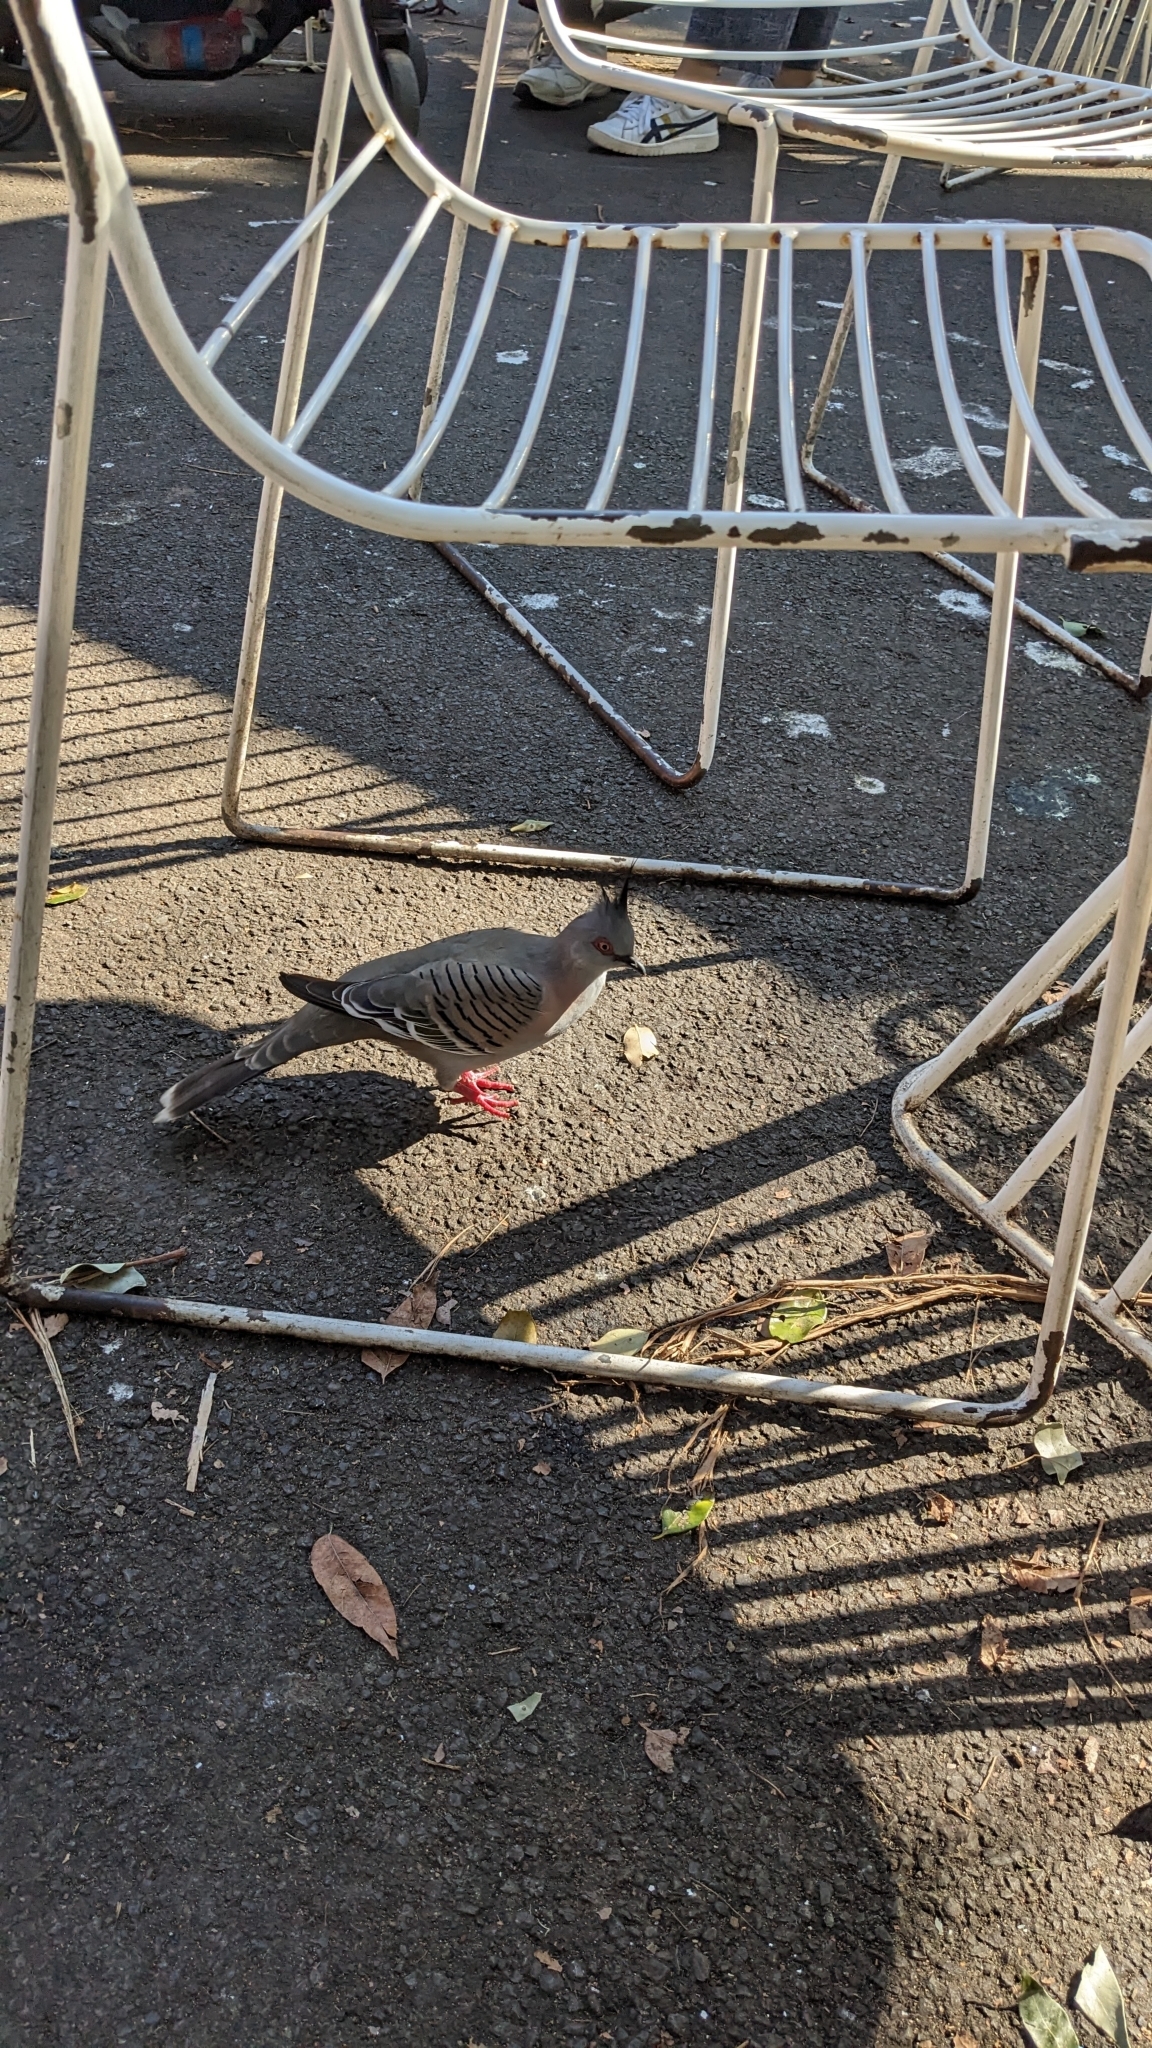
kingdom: Animalia
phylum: Chordata
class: Aves
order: Columbiformes
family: Columbidae
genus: Ocyphaps
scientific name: Ocyphaps lophotes
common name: Crested pigeon
